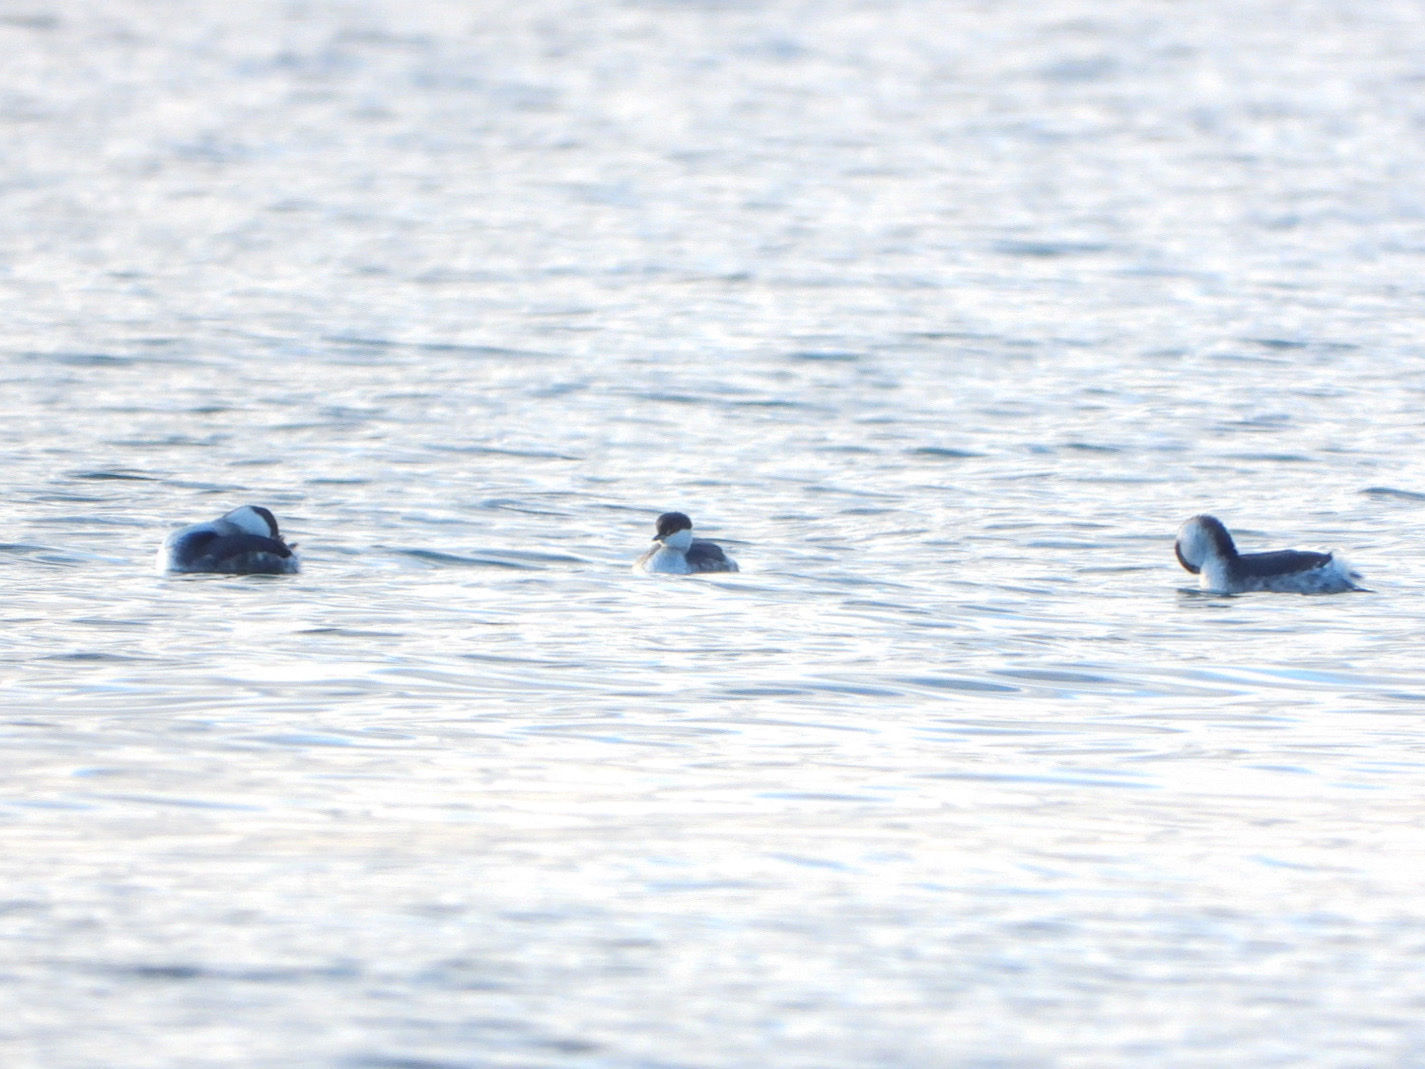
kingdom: Animalia
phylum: Chordata
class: Aves
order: Podicipediformes
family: Podicipedidae
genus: Podiceps
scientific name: Podiceps auritus
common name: Horned grebe
